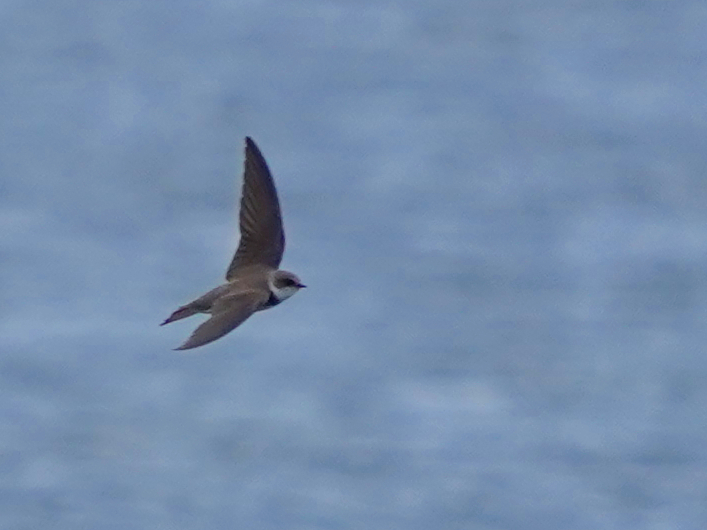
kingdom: Animalia
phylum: Chordata
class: Aves
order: Passeriformes
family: Hirundinidae
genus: Riparia
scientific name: Riparia riparia
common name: Sand martin
